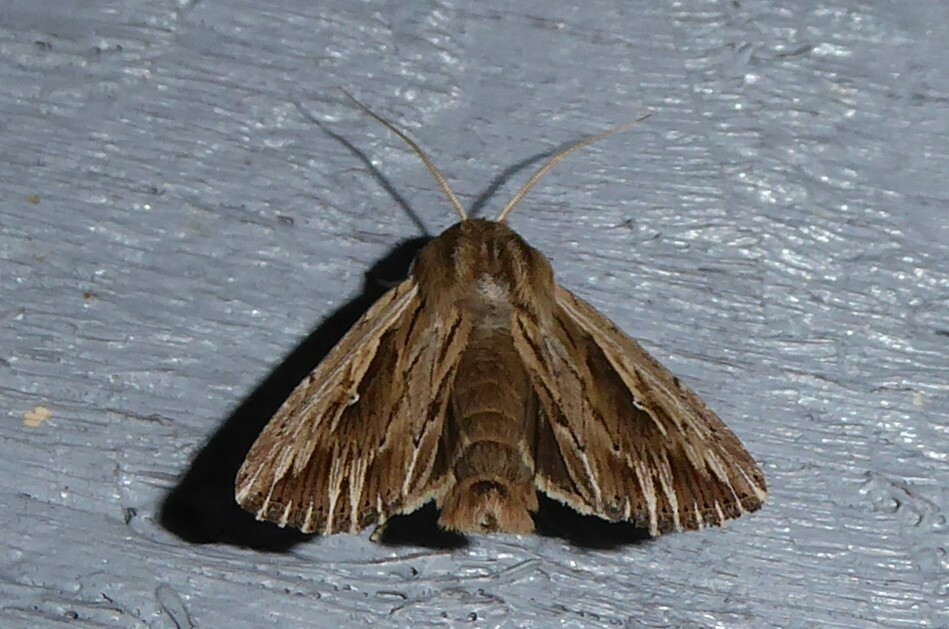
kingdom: Animalia
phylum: Arthropoda
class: Insecta
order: Lepidoptera
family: Noctuidae
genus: Persectania
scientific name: Persectania aversa
